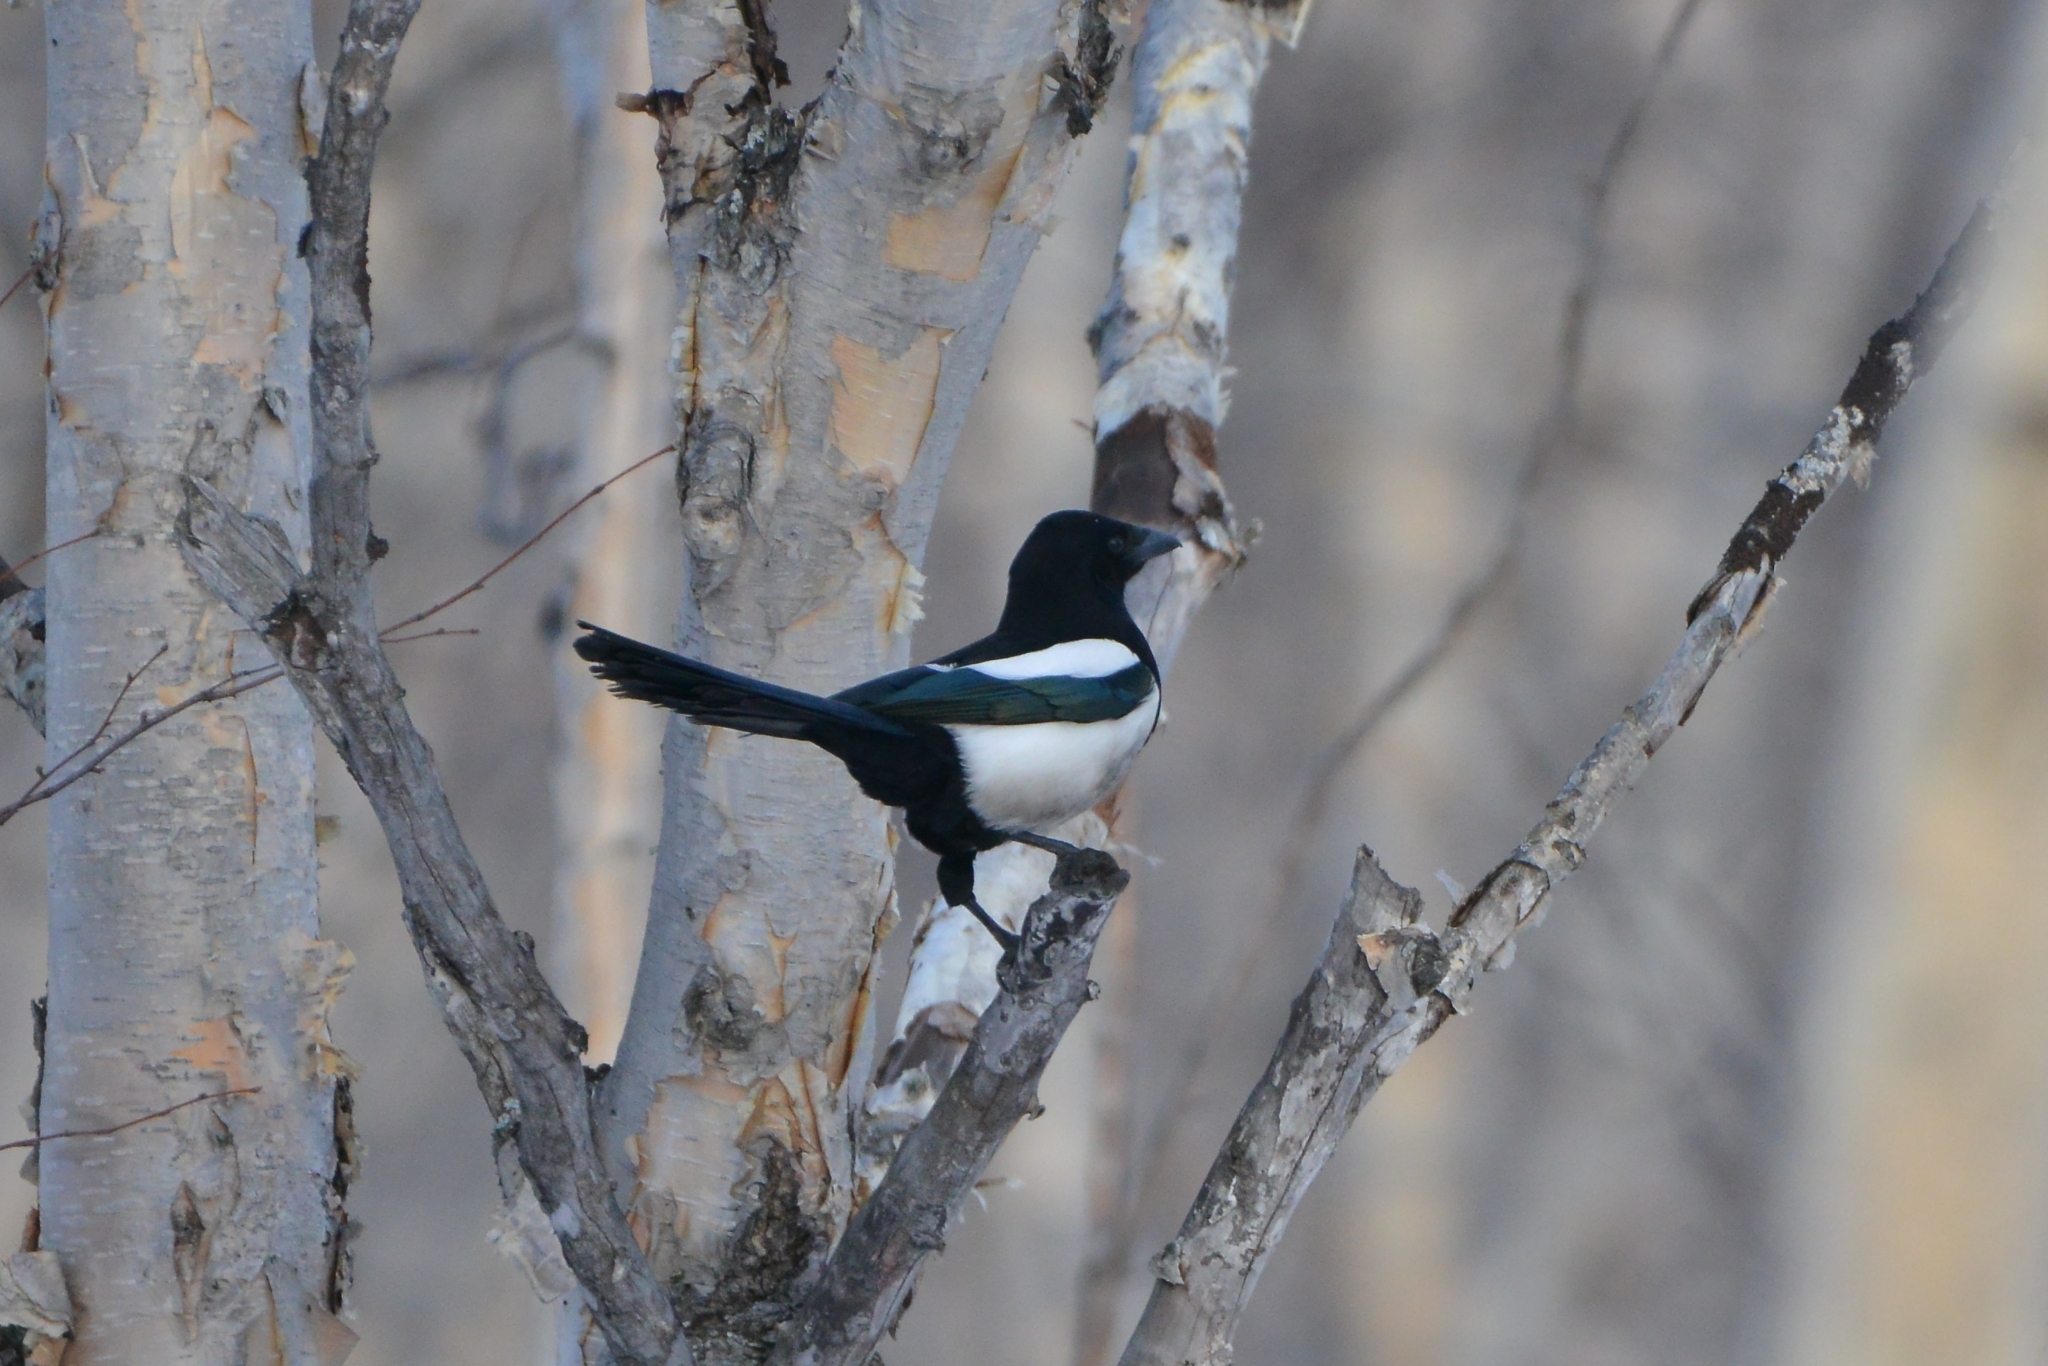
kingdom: Animalia
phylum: Chordata
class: Aves
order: Passeriformes
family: Corvidae
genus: Pica
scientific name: Pica pica
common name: Eurasian magpie
